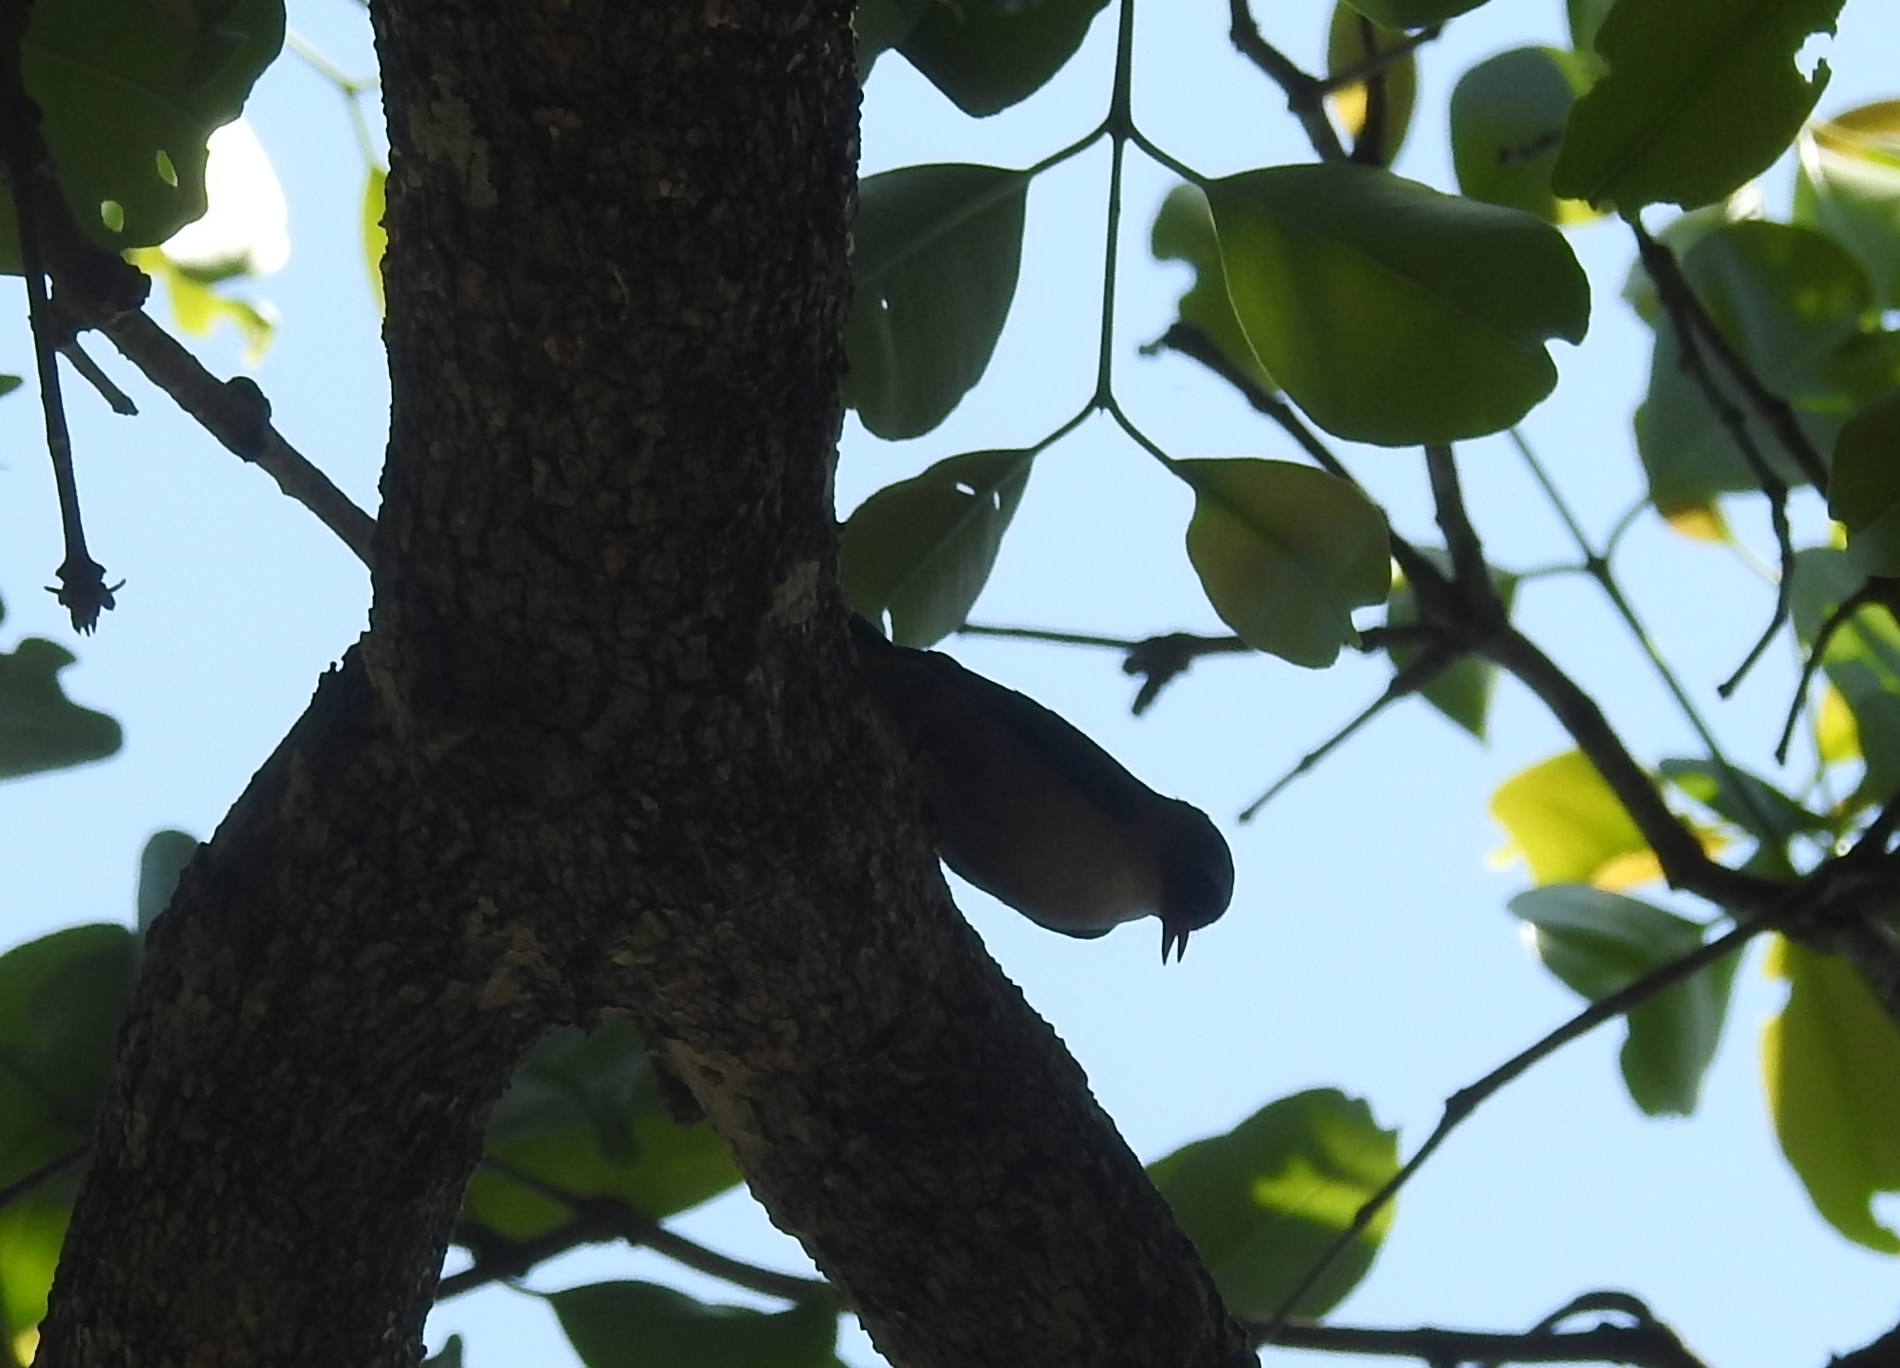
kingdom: Animalia
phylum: Chordata
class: Aves
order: Passeriformes
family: Sittidae
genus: Sitta
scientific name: Sitta frontalis
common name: Velvet-fronted nuthatch
